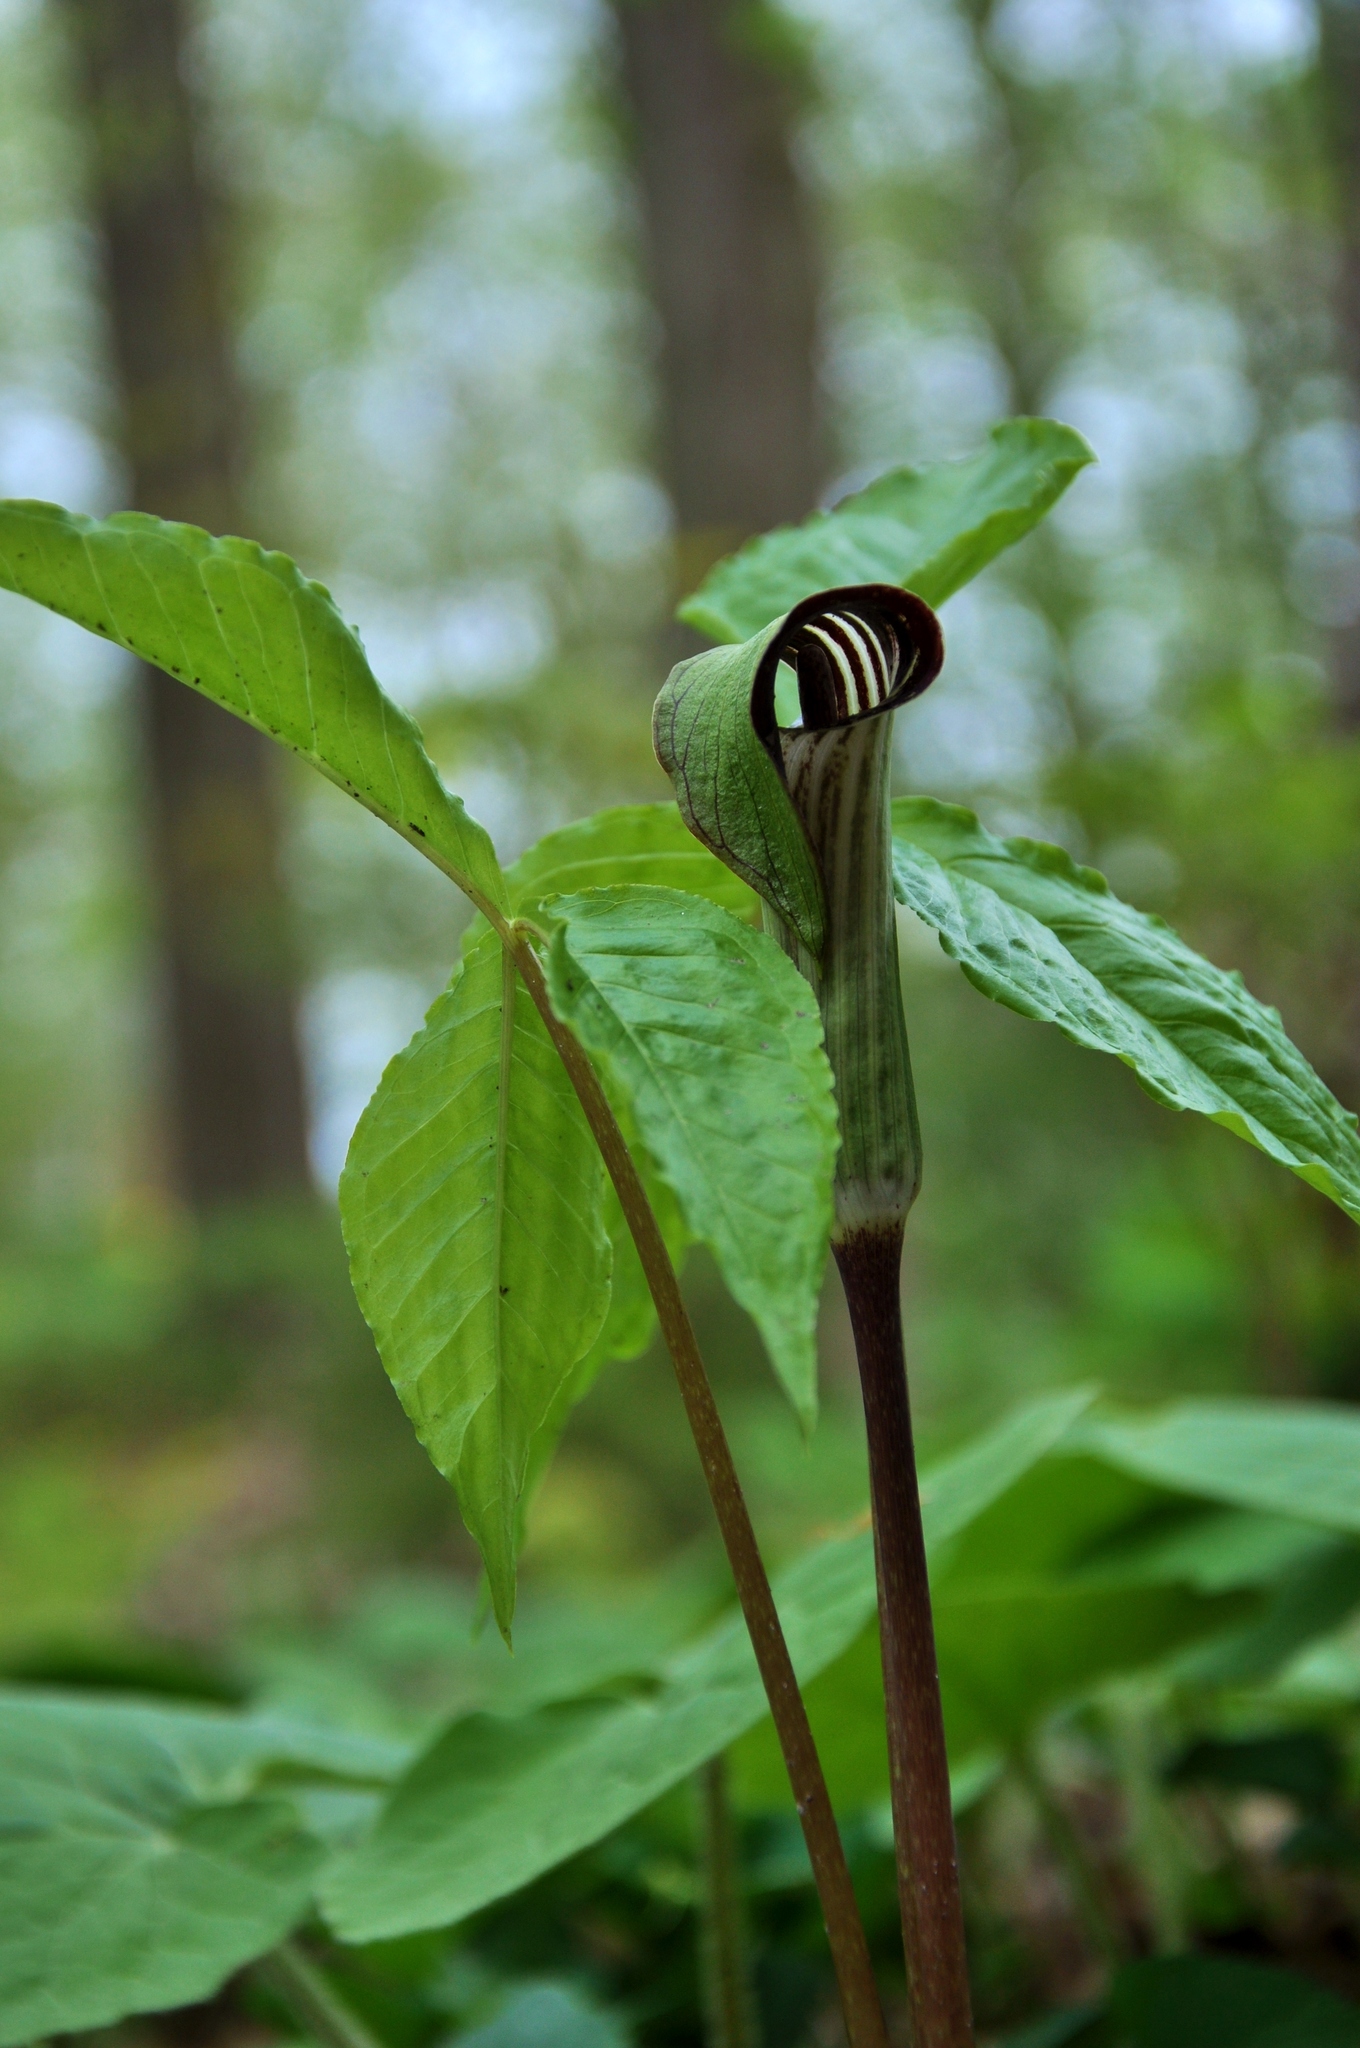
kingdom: Plantae
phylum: Tracheophyta
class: Liliopsida
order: Alismatales
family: Araceae
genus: Arisaema
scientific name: Arisaema triphyllum
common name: Jack-in-the-pulpit
